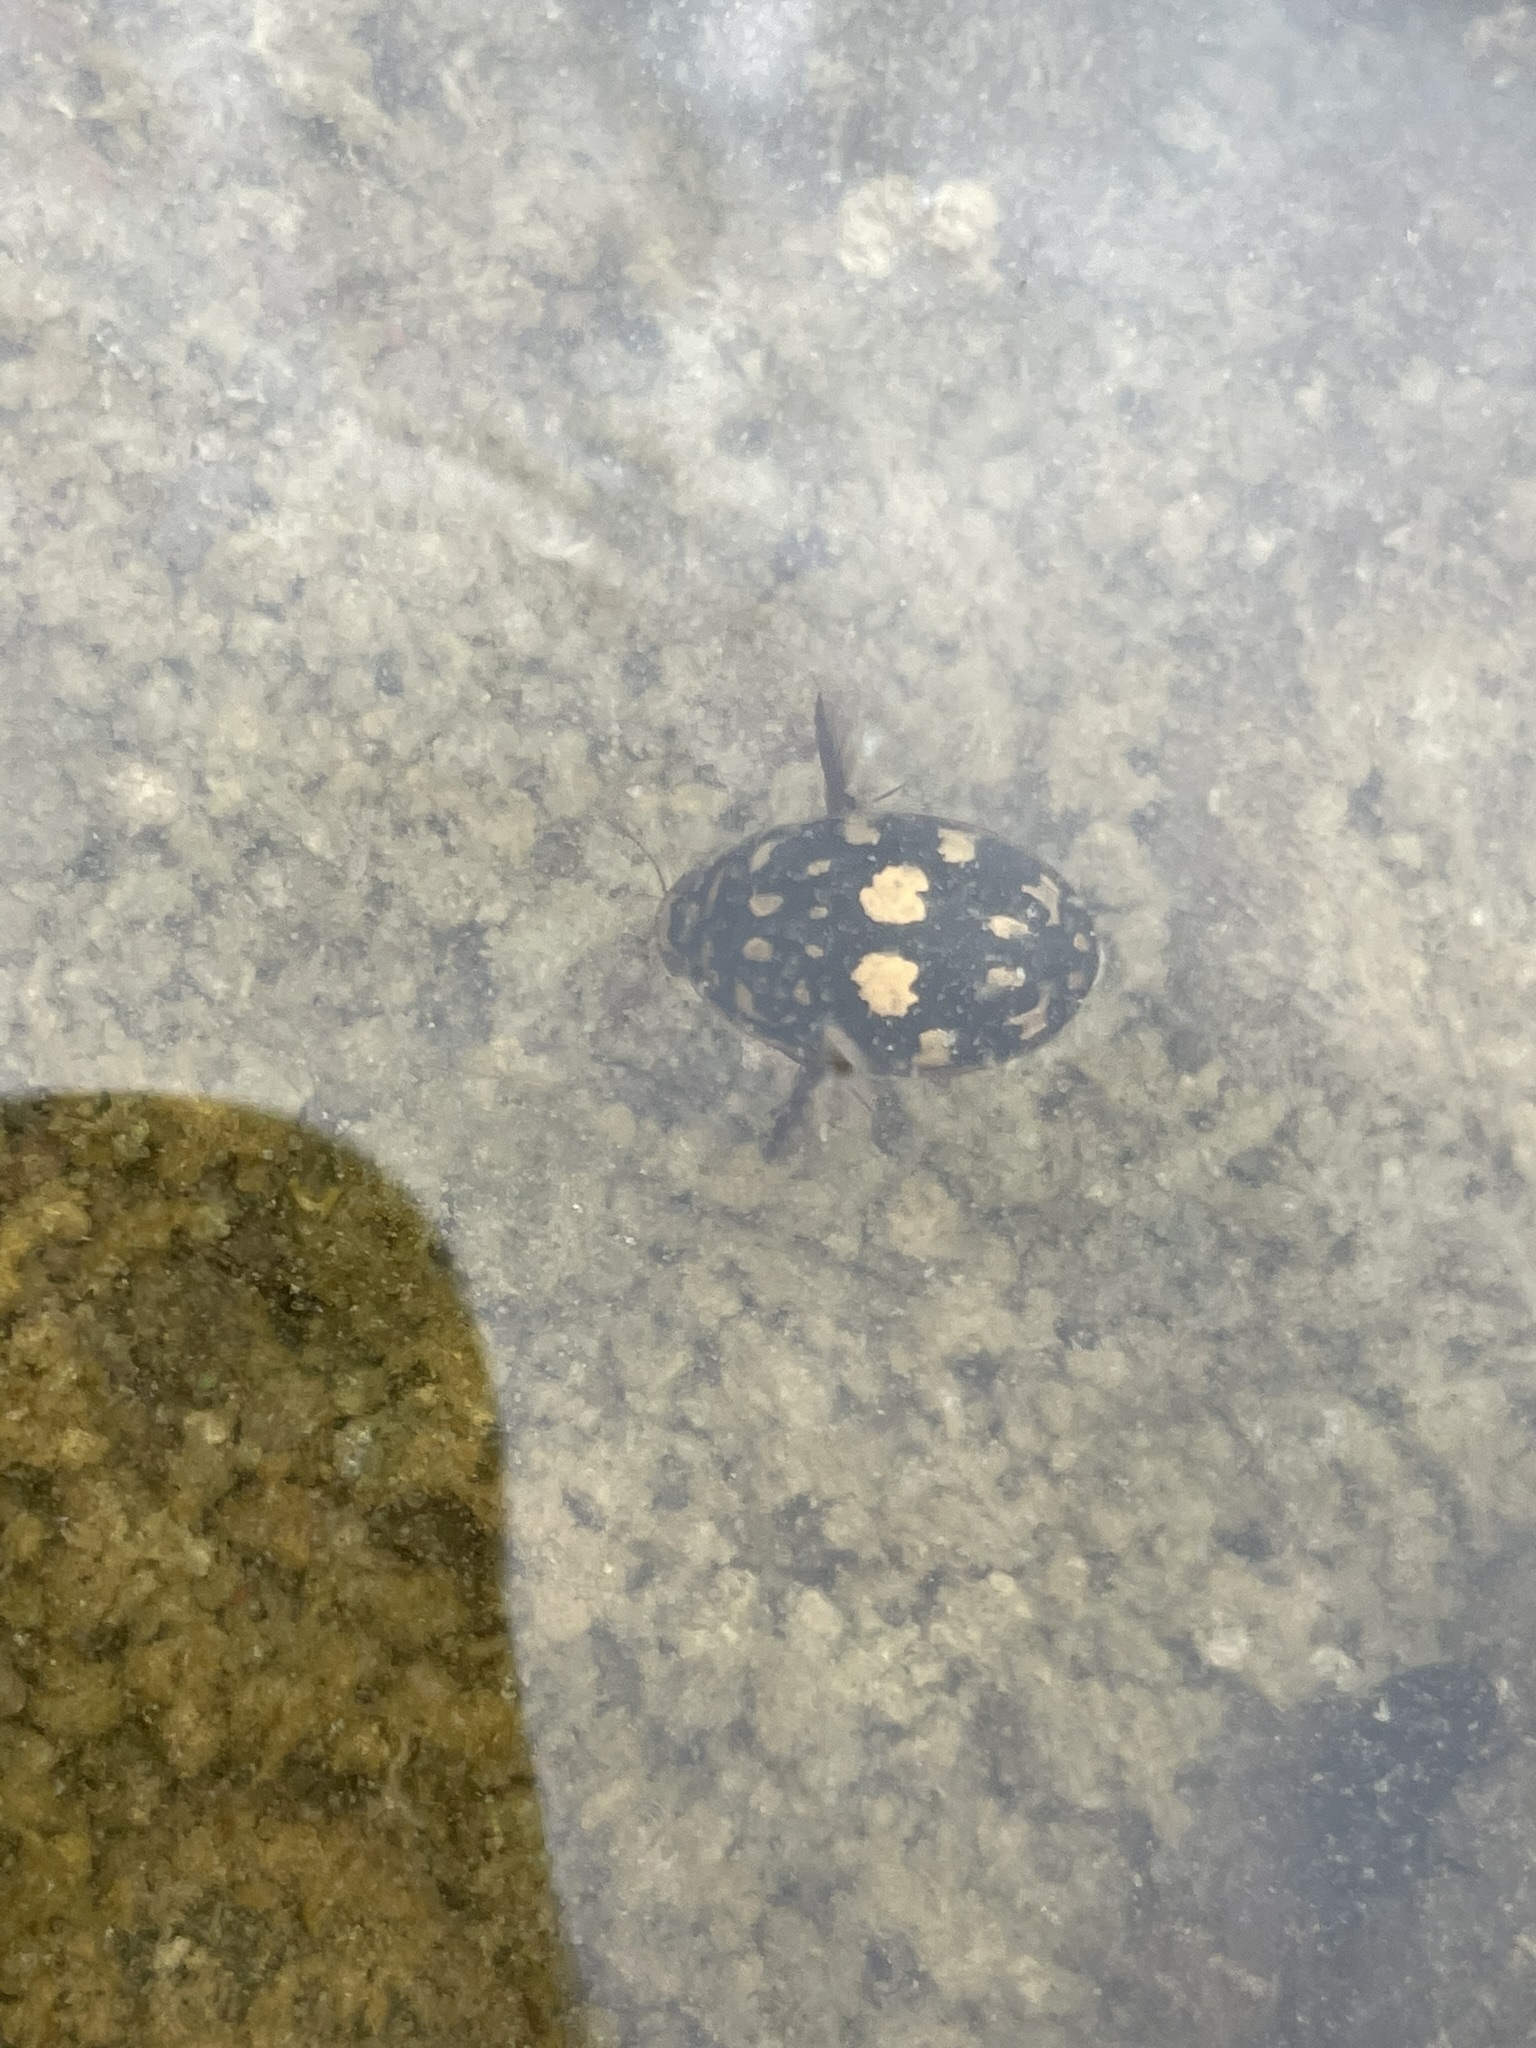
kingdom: Animalia
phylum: Arthropoda
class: Insecta
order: Coleoptera
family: Dytiscidae
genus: Thermonectus
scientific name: Thermonectus marmoratus
